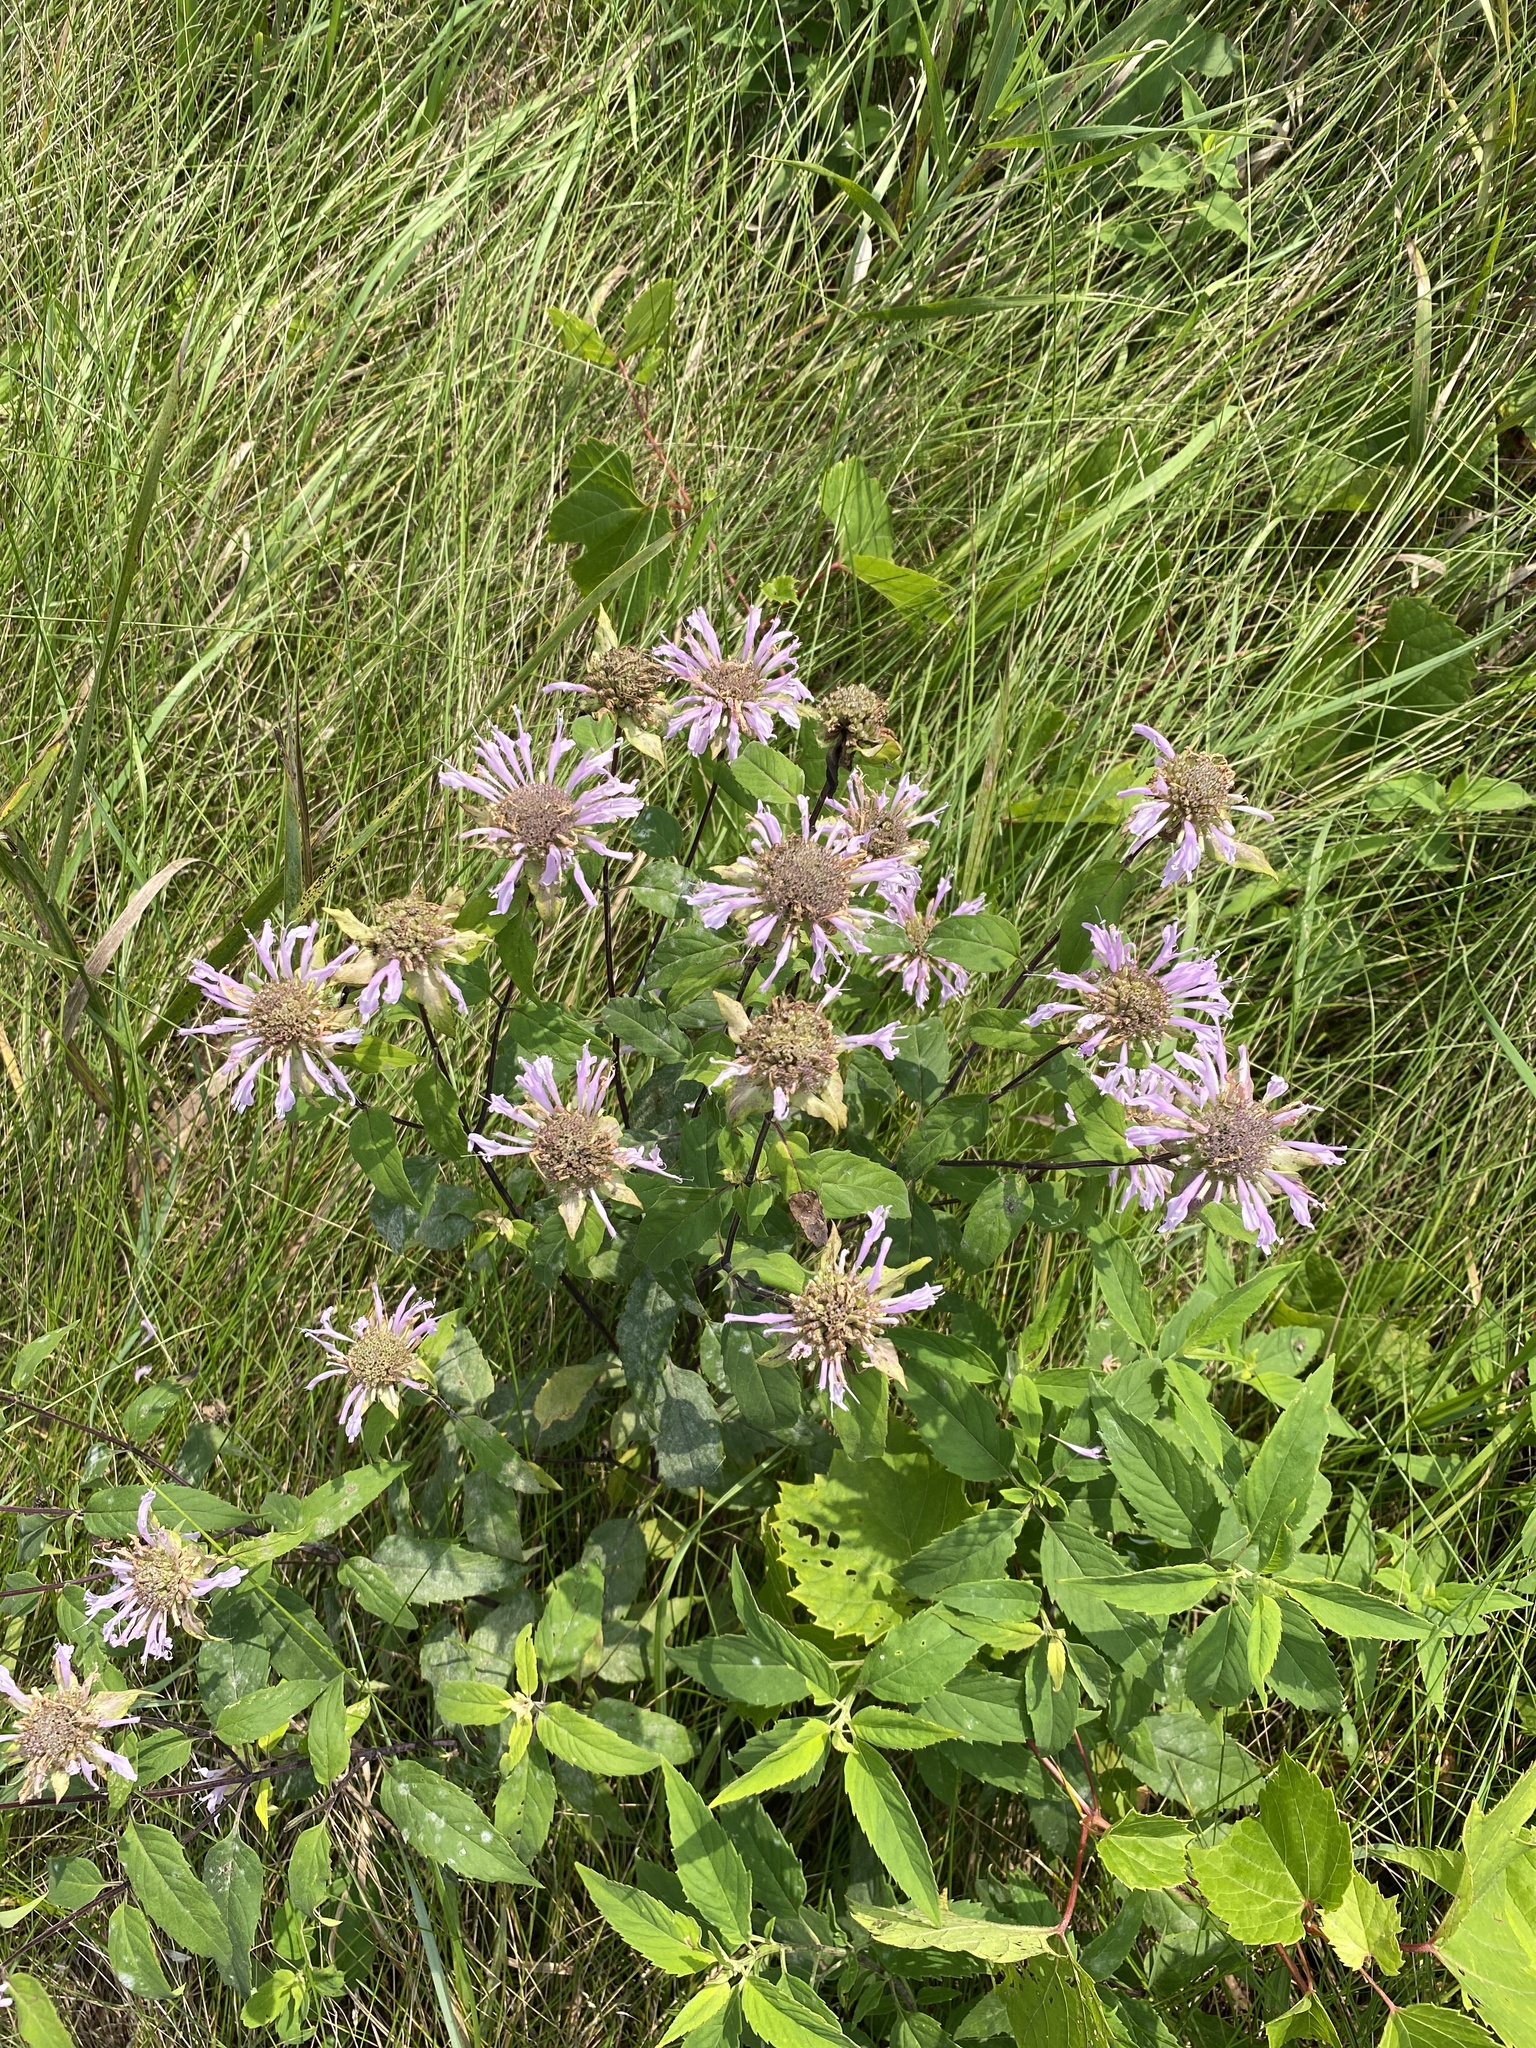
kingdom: Plantae
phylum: Tracheophyta
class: Magnoliopsida
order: Lamiales
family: Lamiaceae
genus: Monarda
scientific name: Monarda fistulosa
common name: Purple beebalm
